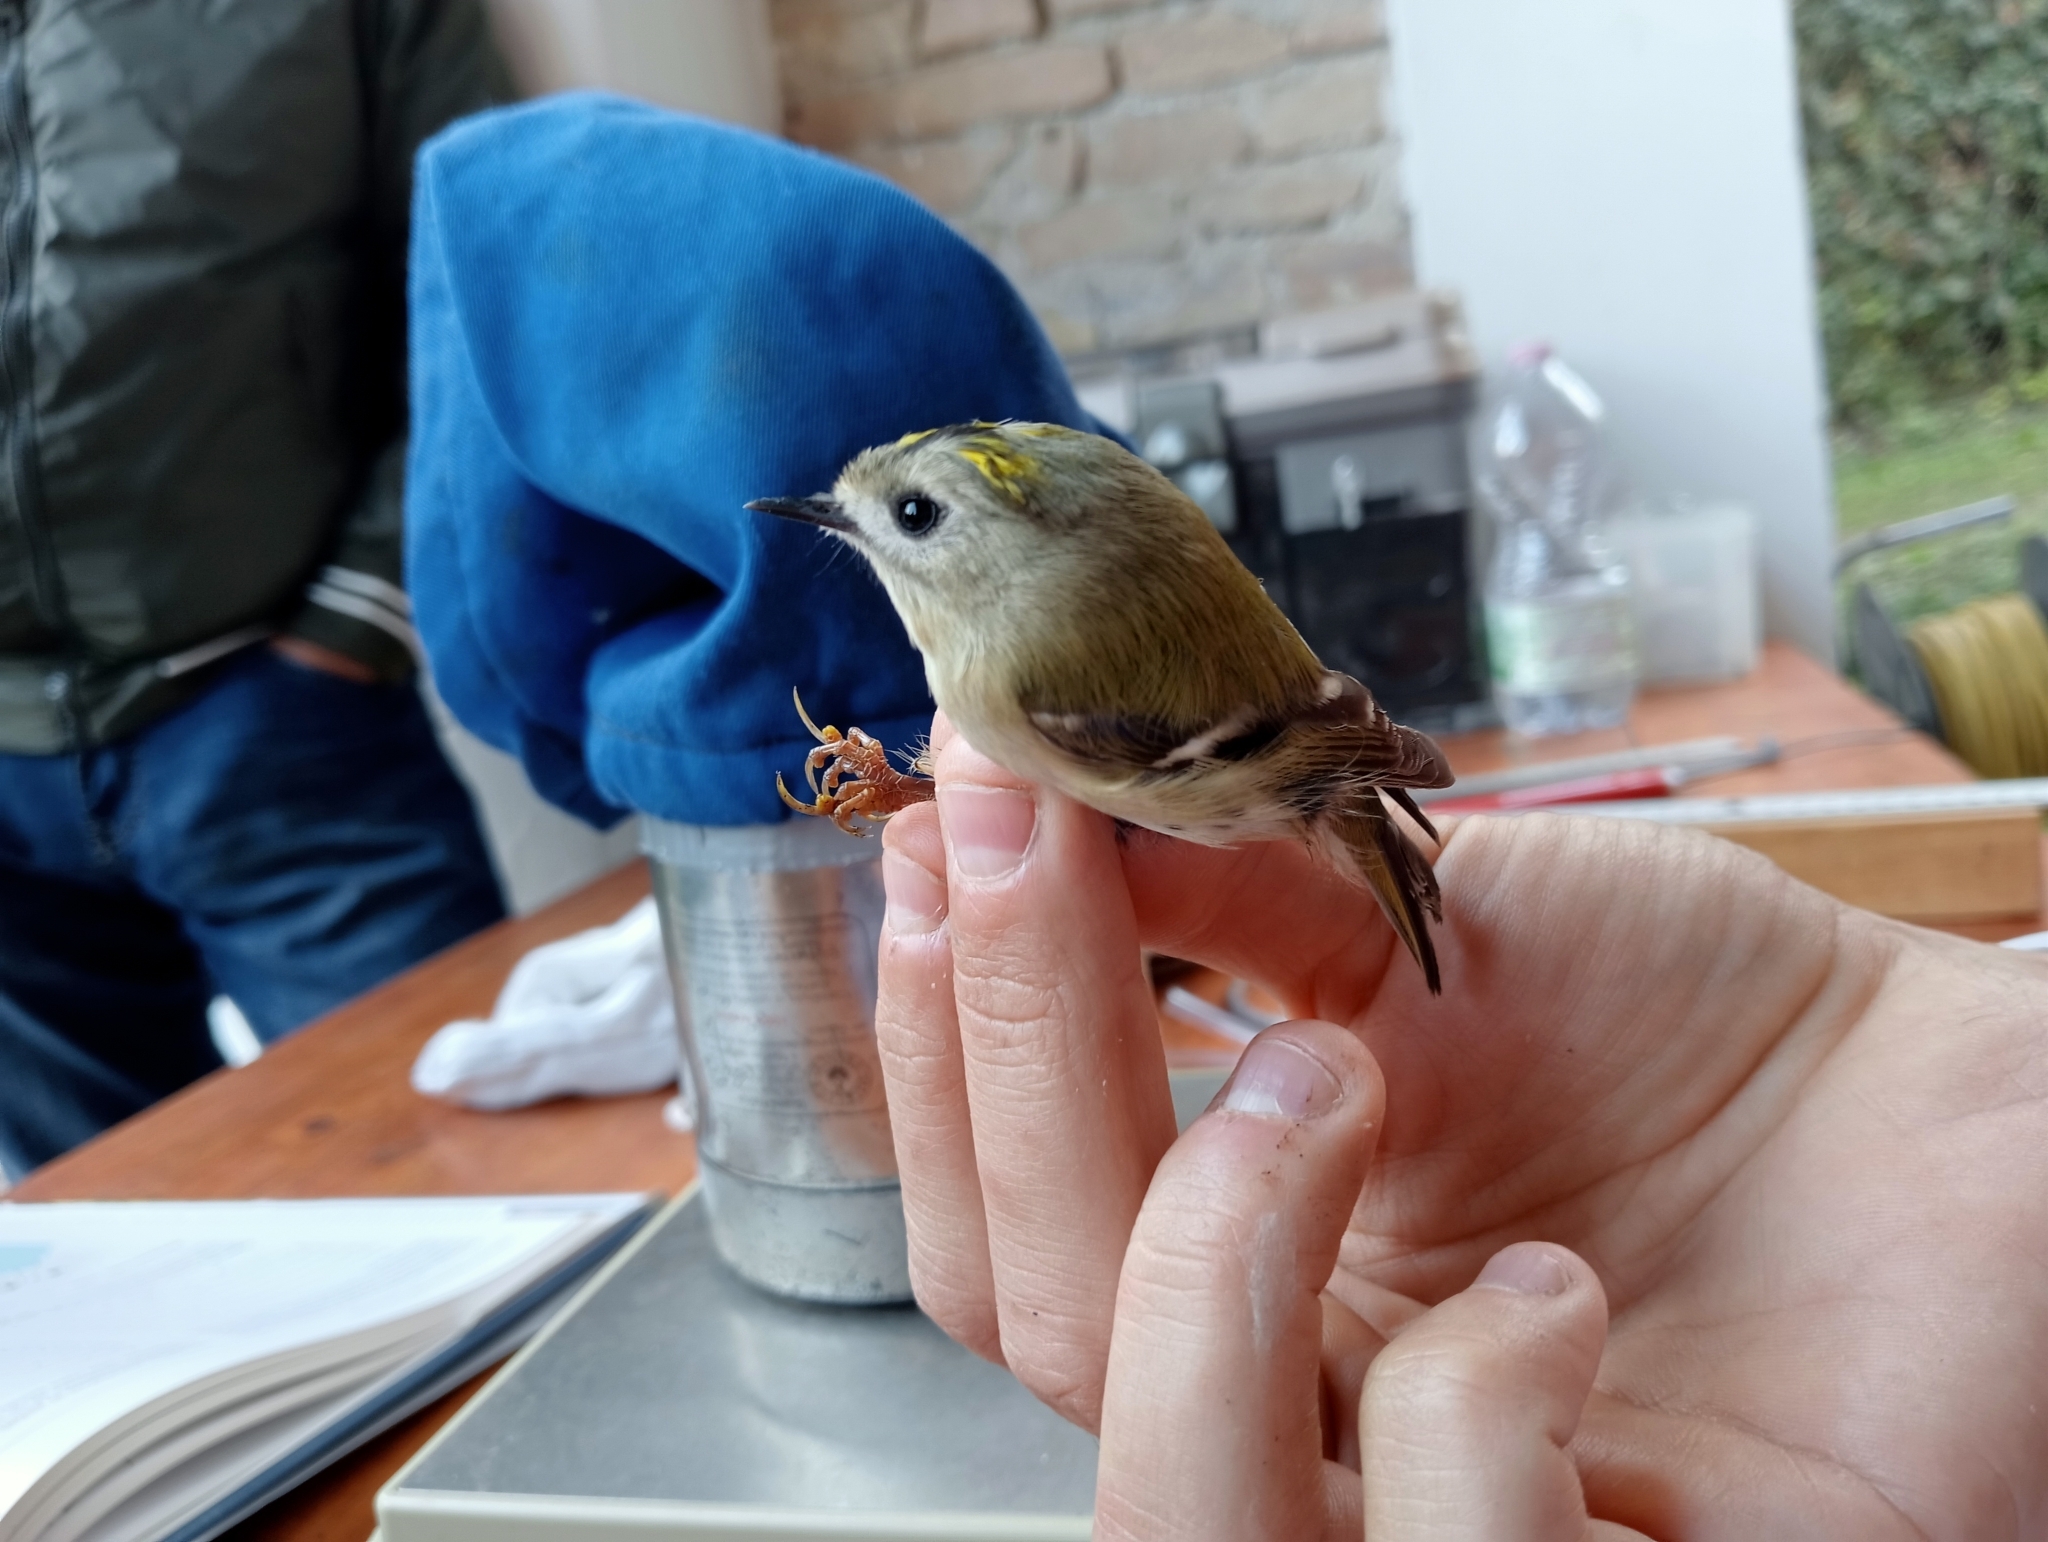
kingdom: Animalia
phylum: Chordata
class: Aves
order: Passeriformes
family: Regulidae
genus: Regulus
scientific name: Regulus regulus
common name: Goldcrest
